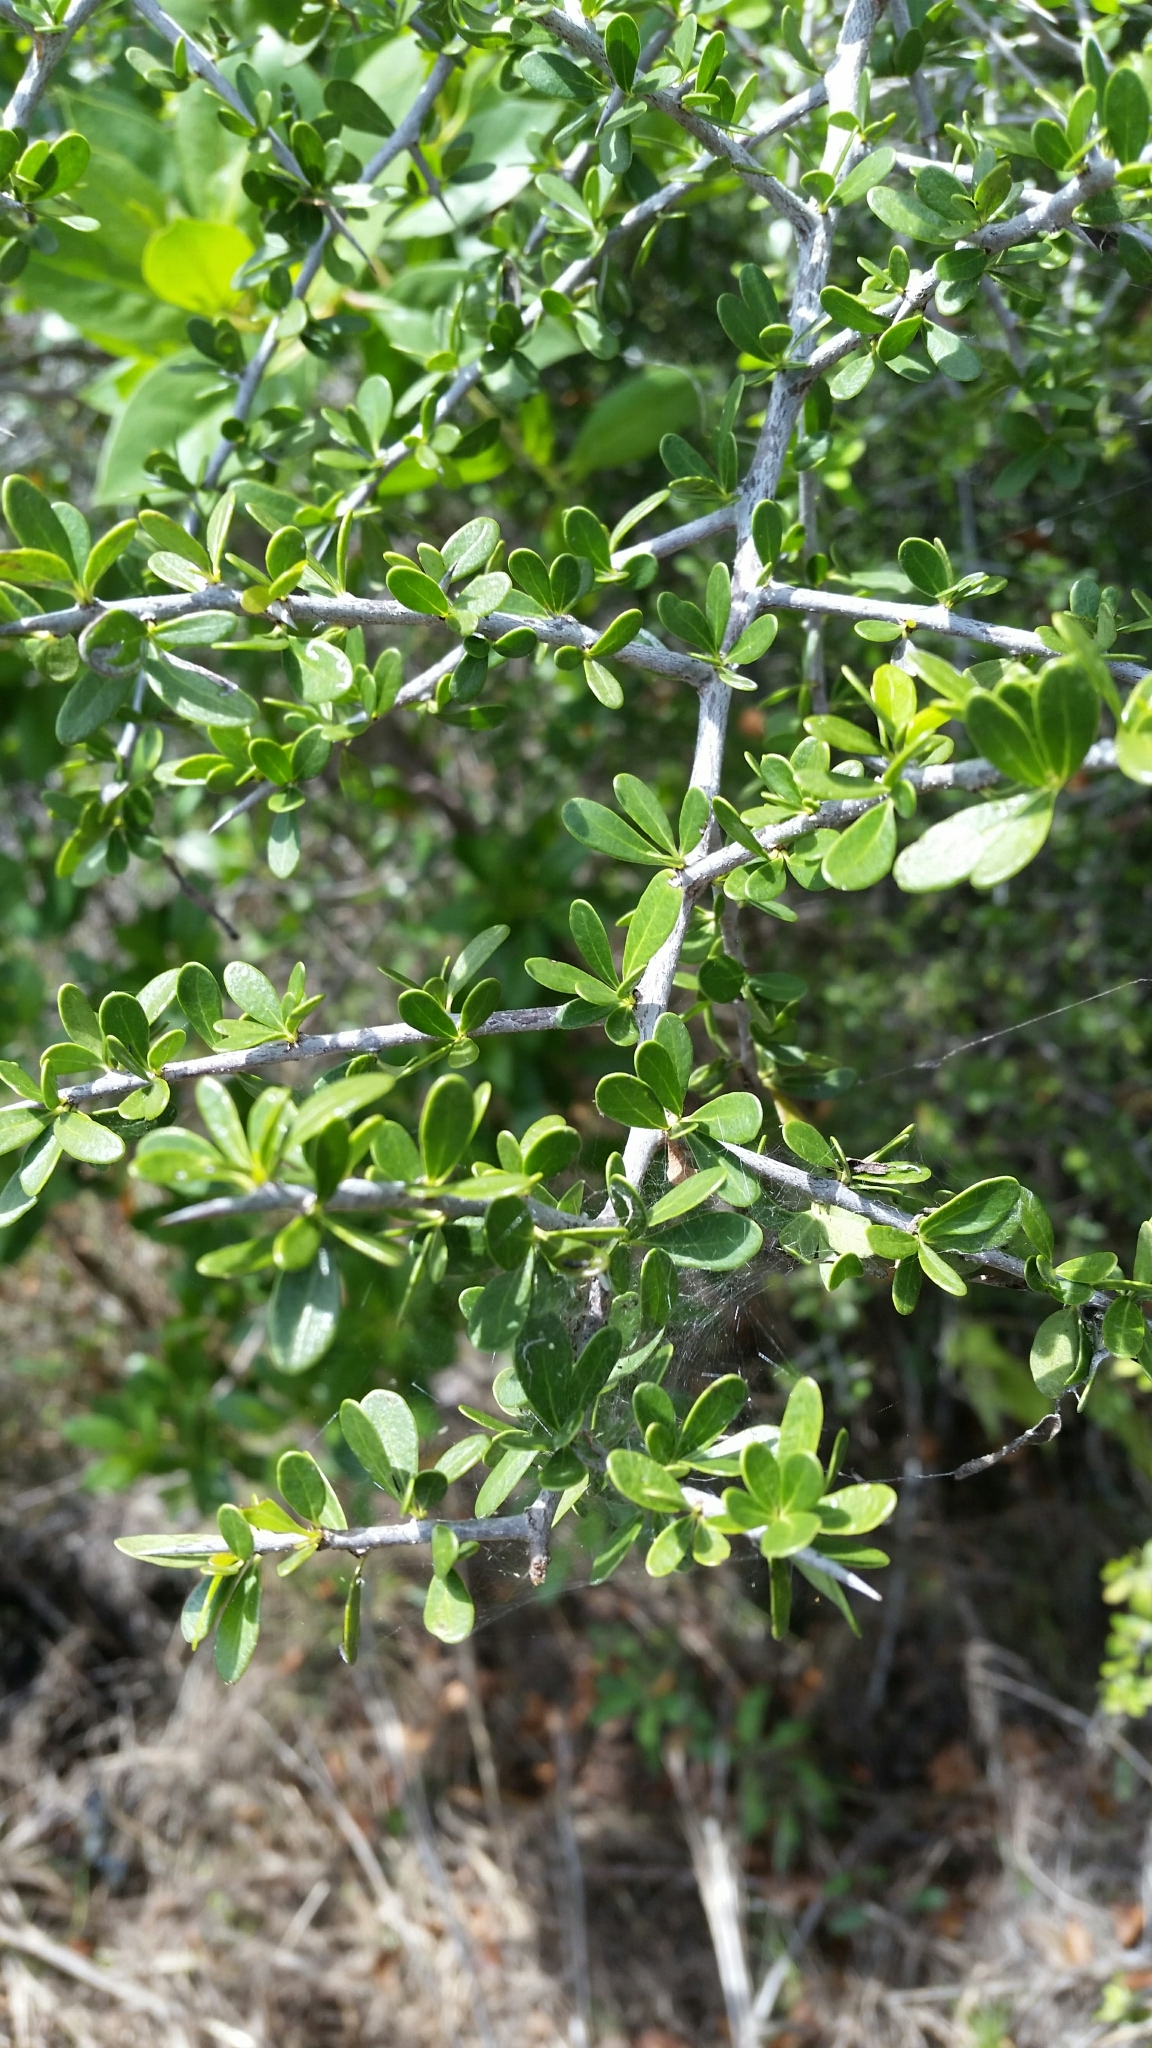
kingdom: Plantae
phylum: Tracheophyta
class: Magnoliopsida
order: Ericales
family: Sapotaceae
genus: Sideroxylon
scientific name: Sideroxylon celastrinum
